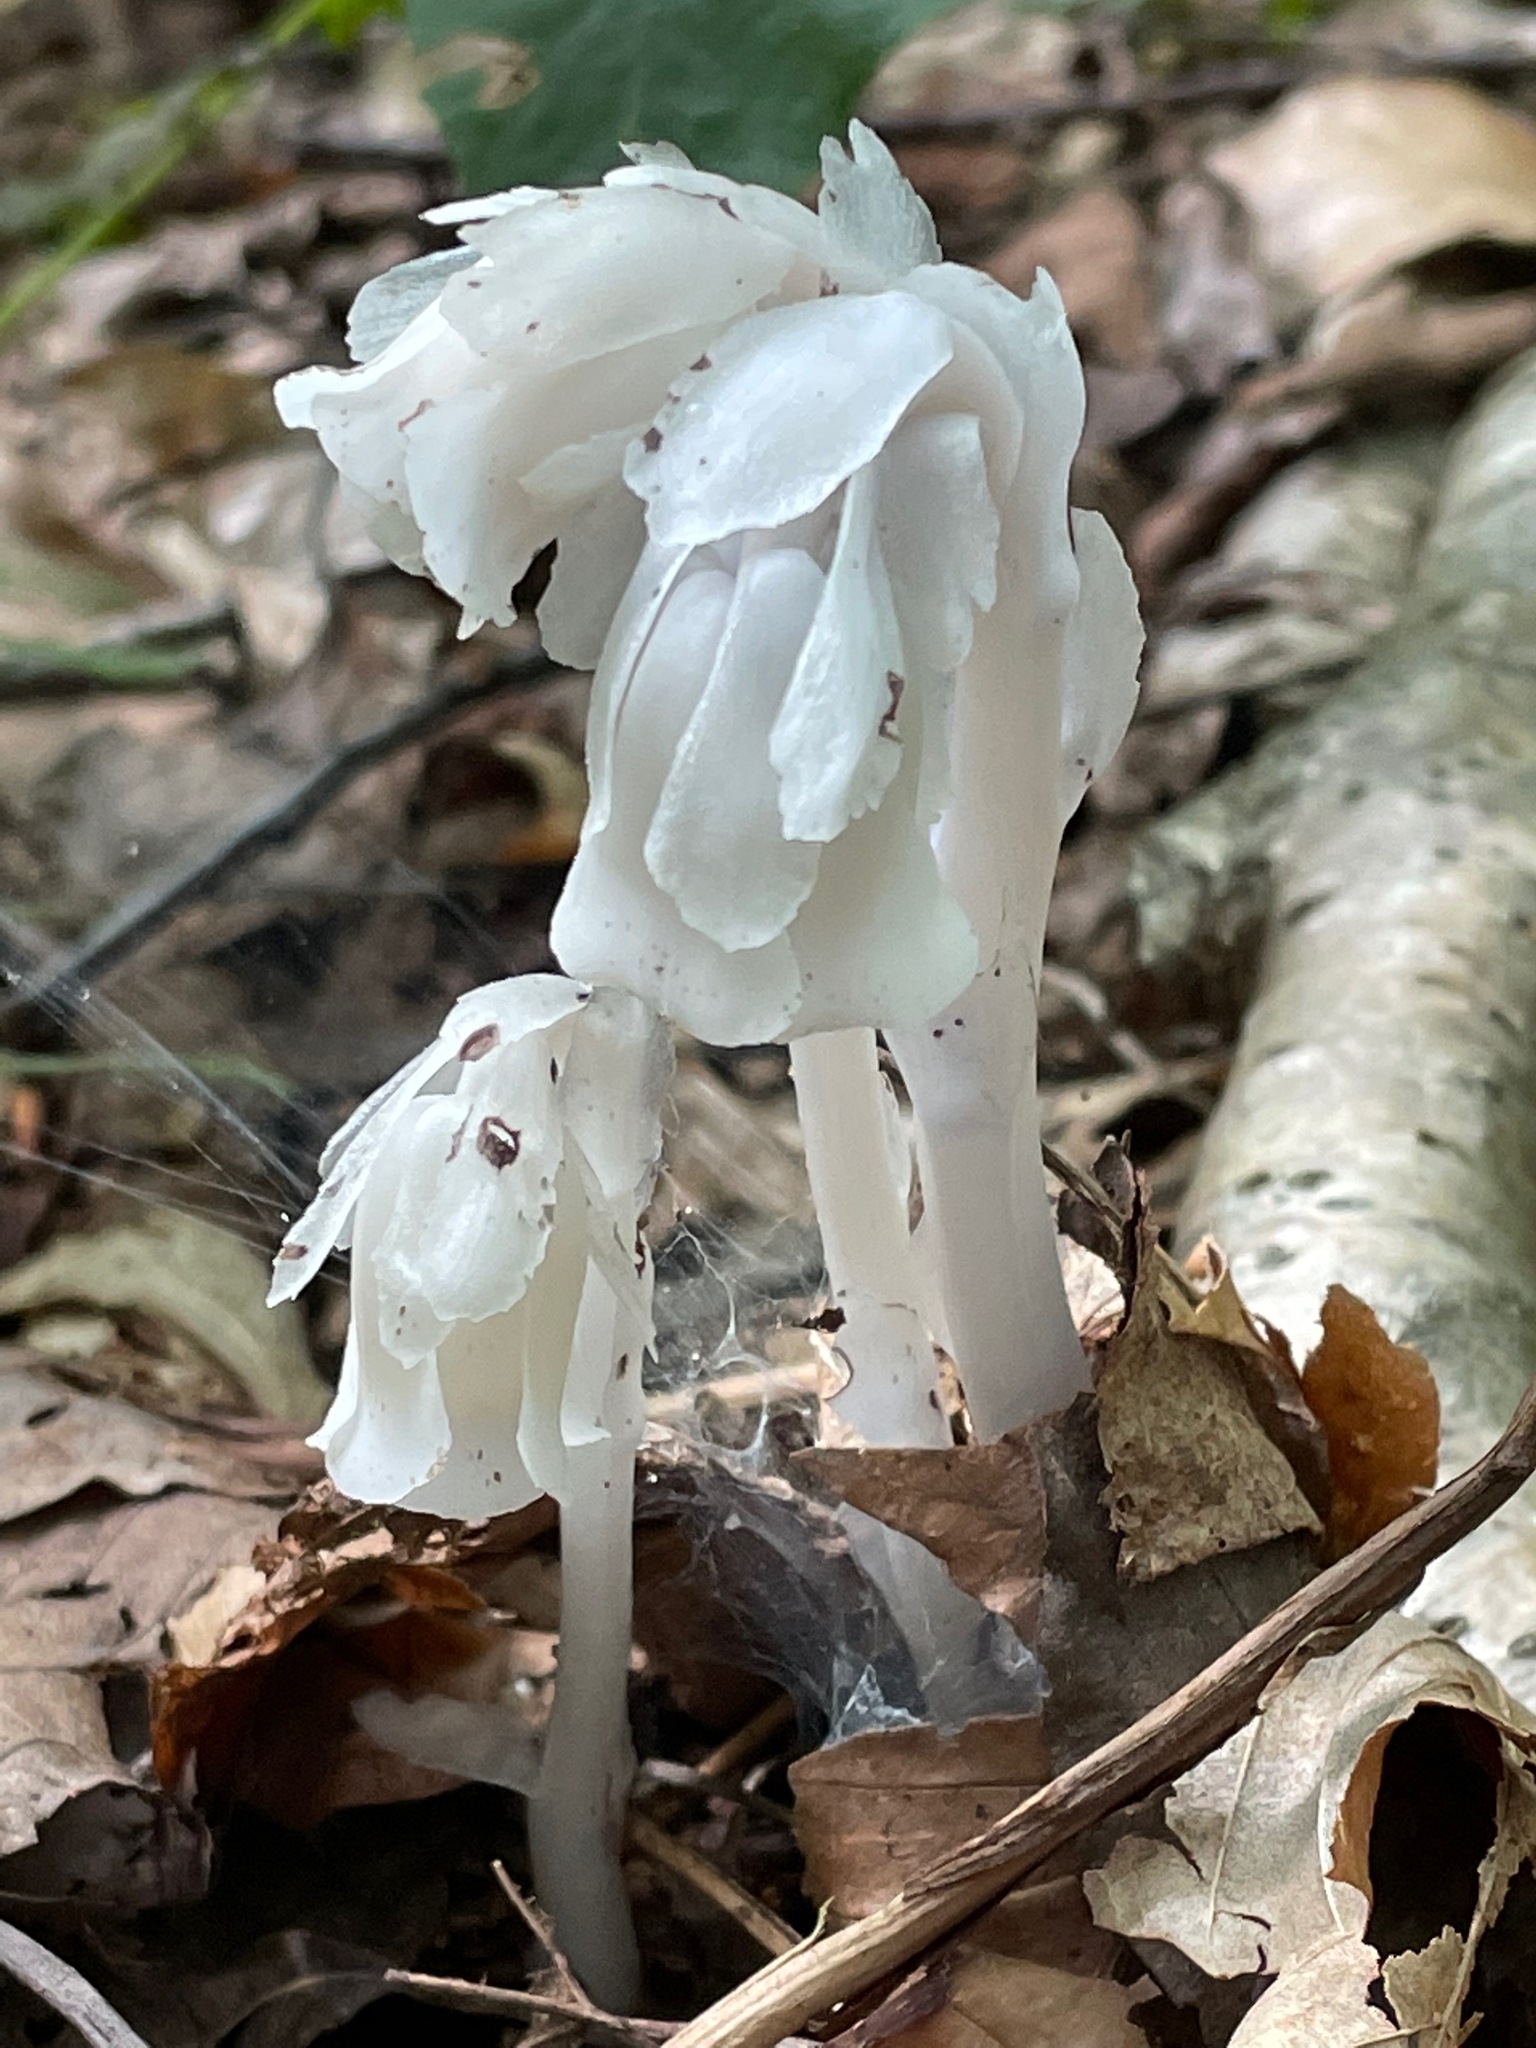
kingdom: Plantae
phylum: Tracheophyta
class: Magnoliopsida
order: Ericales
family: Ericaceae
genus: Monotropa
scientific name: Monotropa uniflora
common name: Convulsion root
